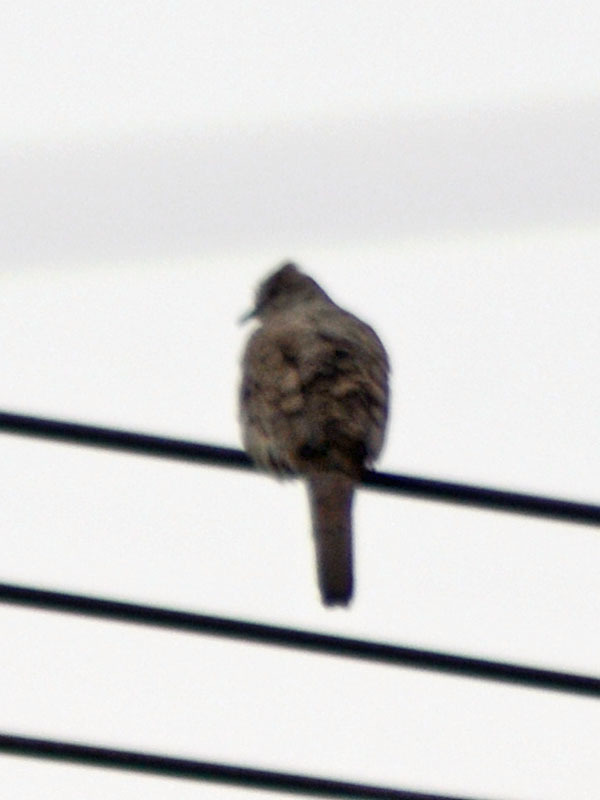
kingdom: Animalia
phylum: Chordata
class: Aves
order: Columbiformes
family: Columbidae
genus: Columbina
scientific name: Columbina inca
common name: Inca dove
